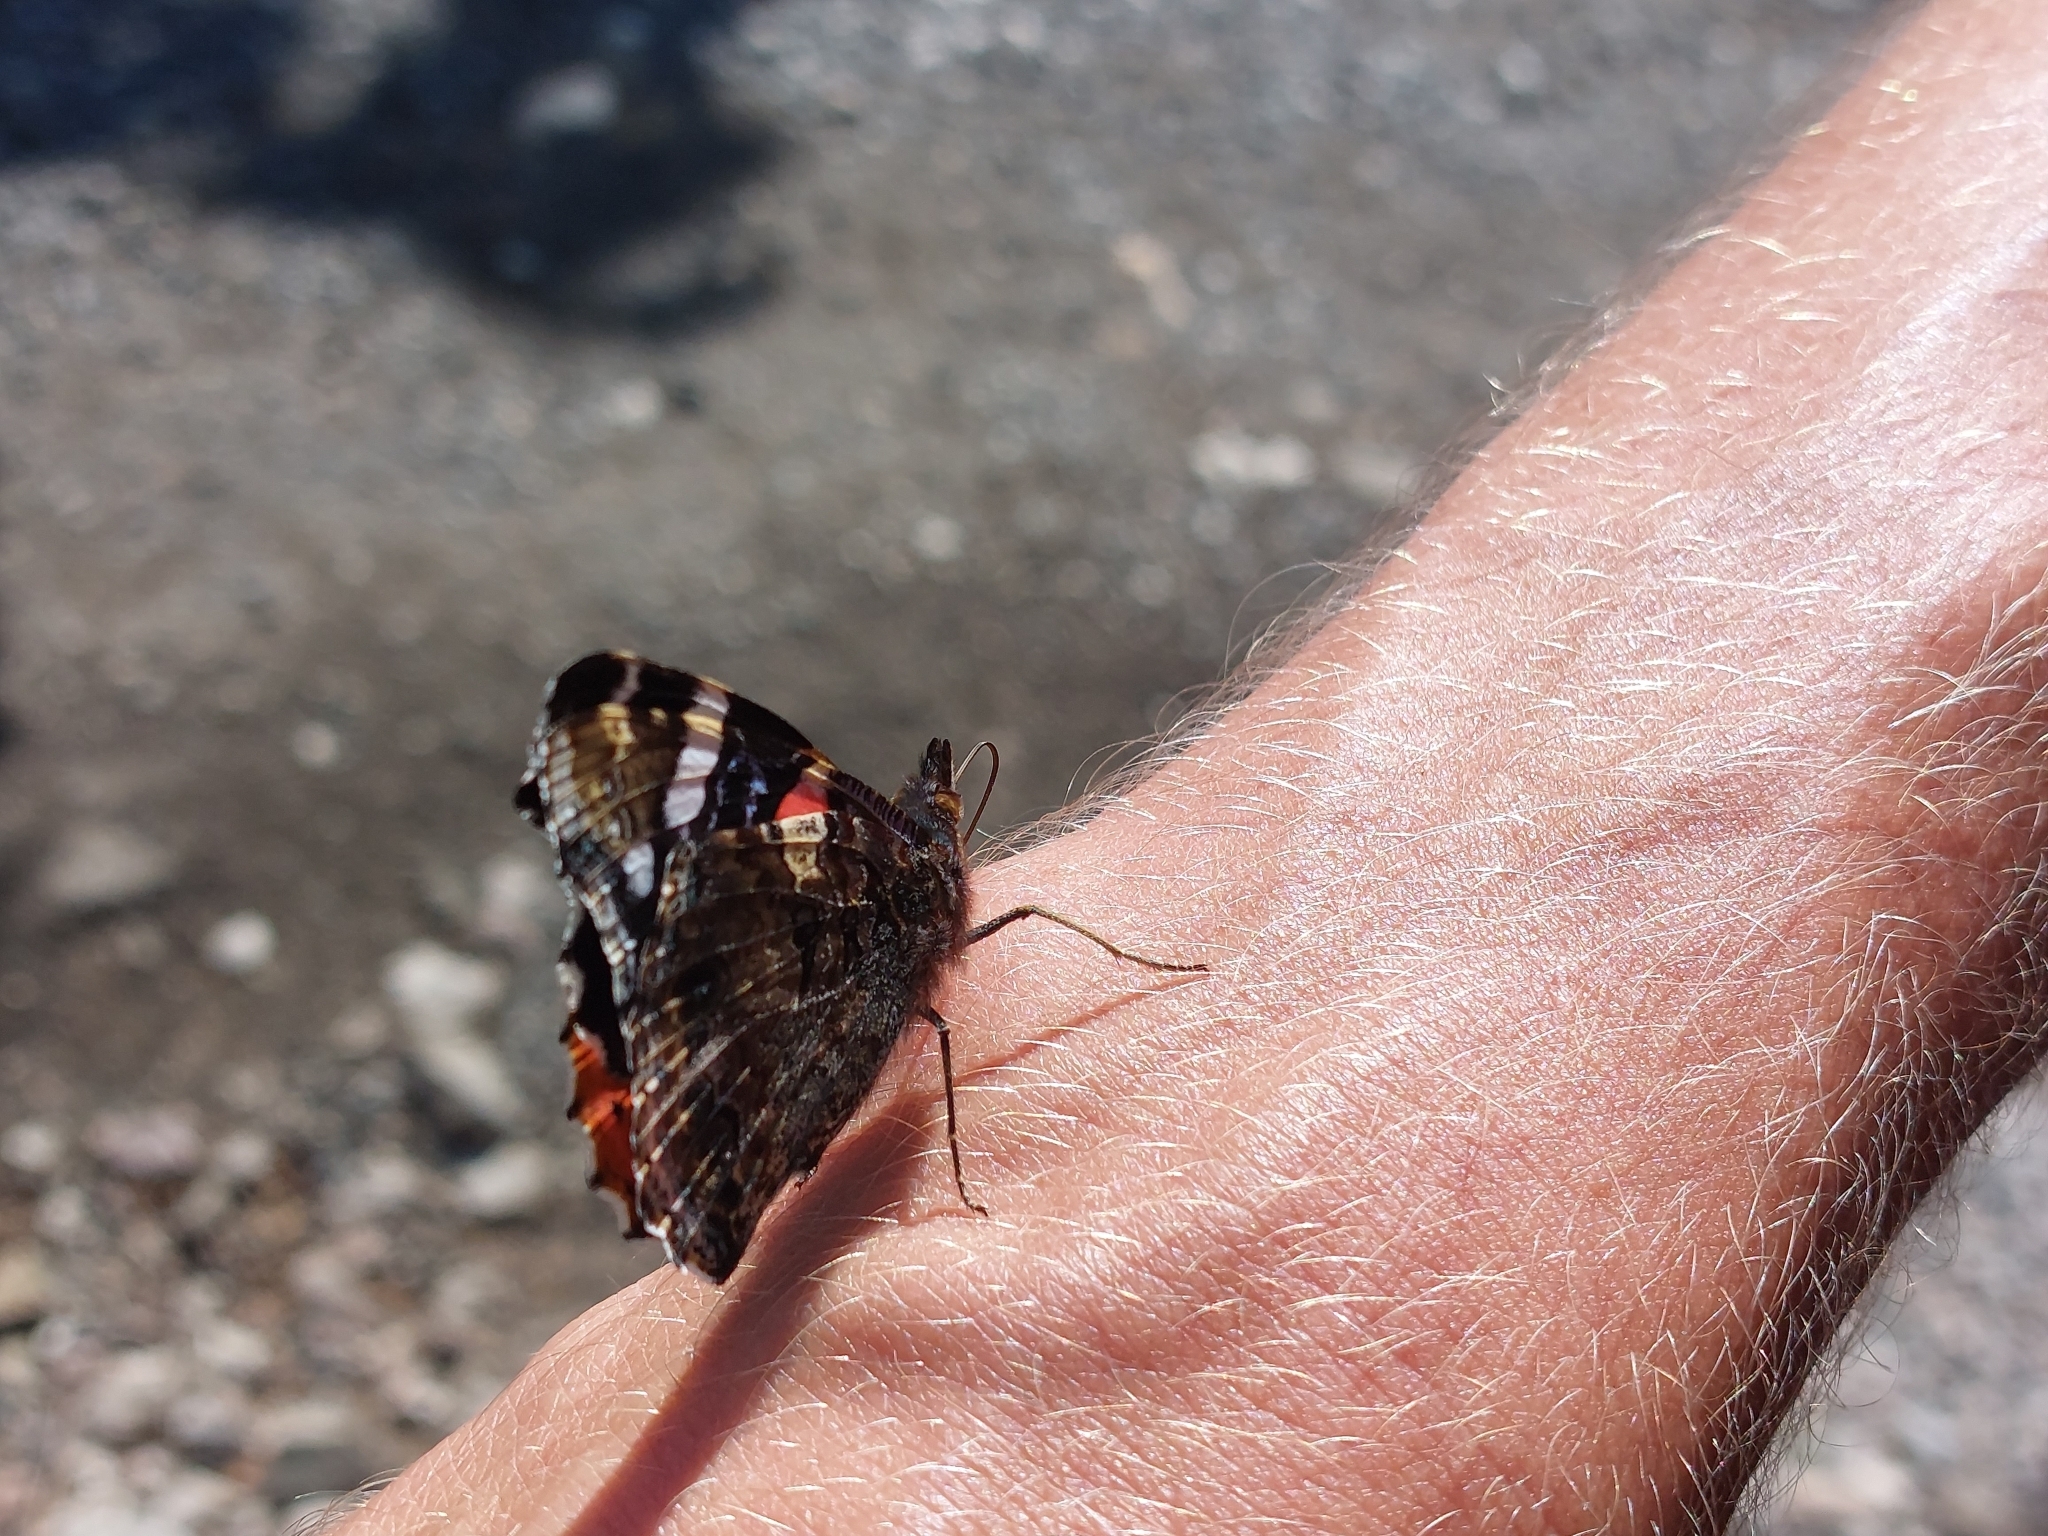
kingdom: Animalia
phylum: Arthropoda
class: Insecta
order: Lepidoptera
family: Nymphalidae
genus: Vanessa
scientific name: Vanessa atalanta
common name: Red admiral
